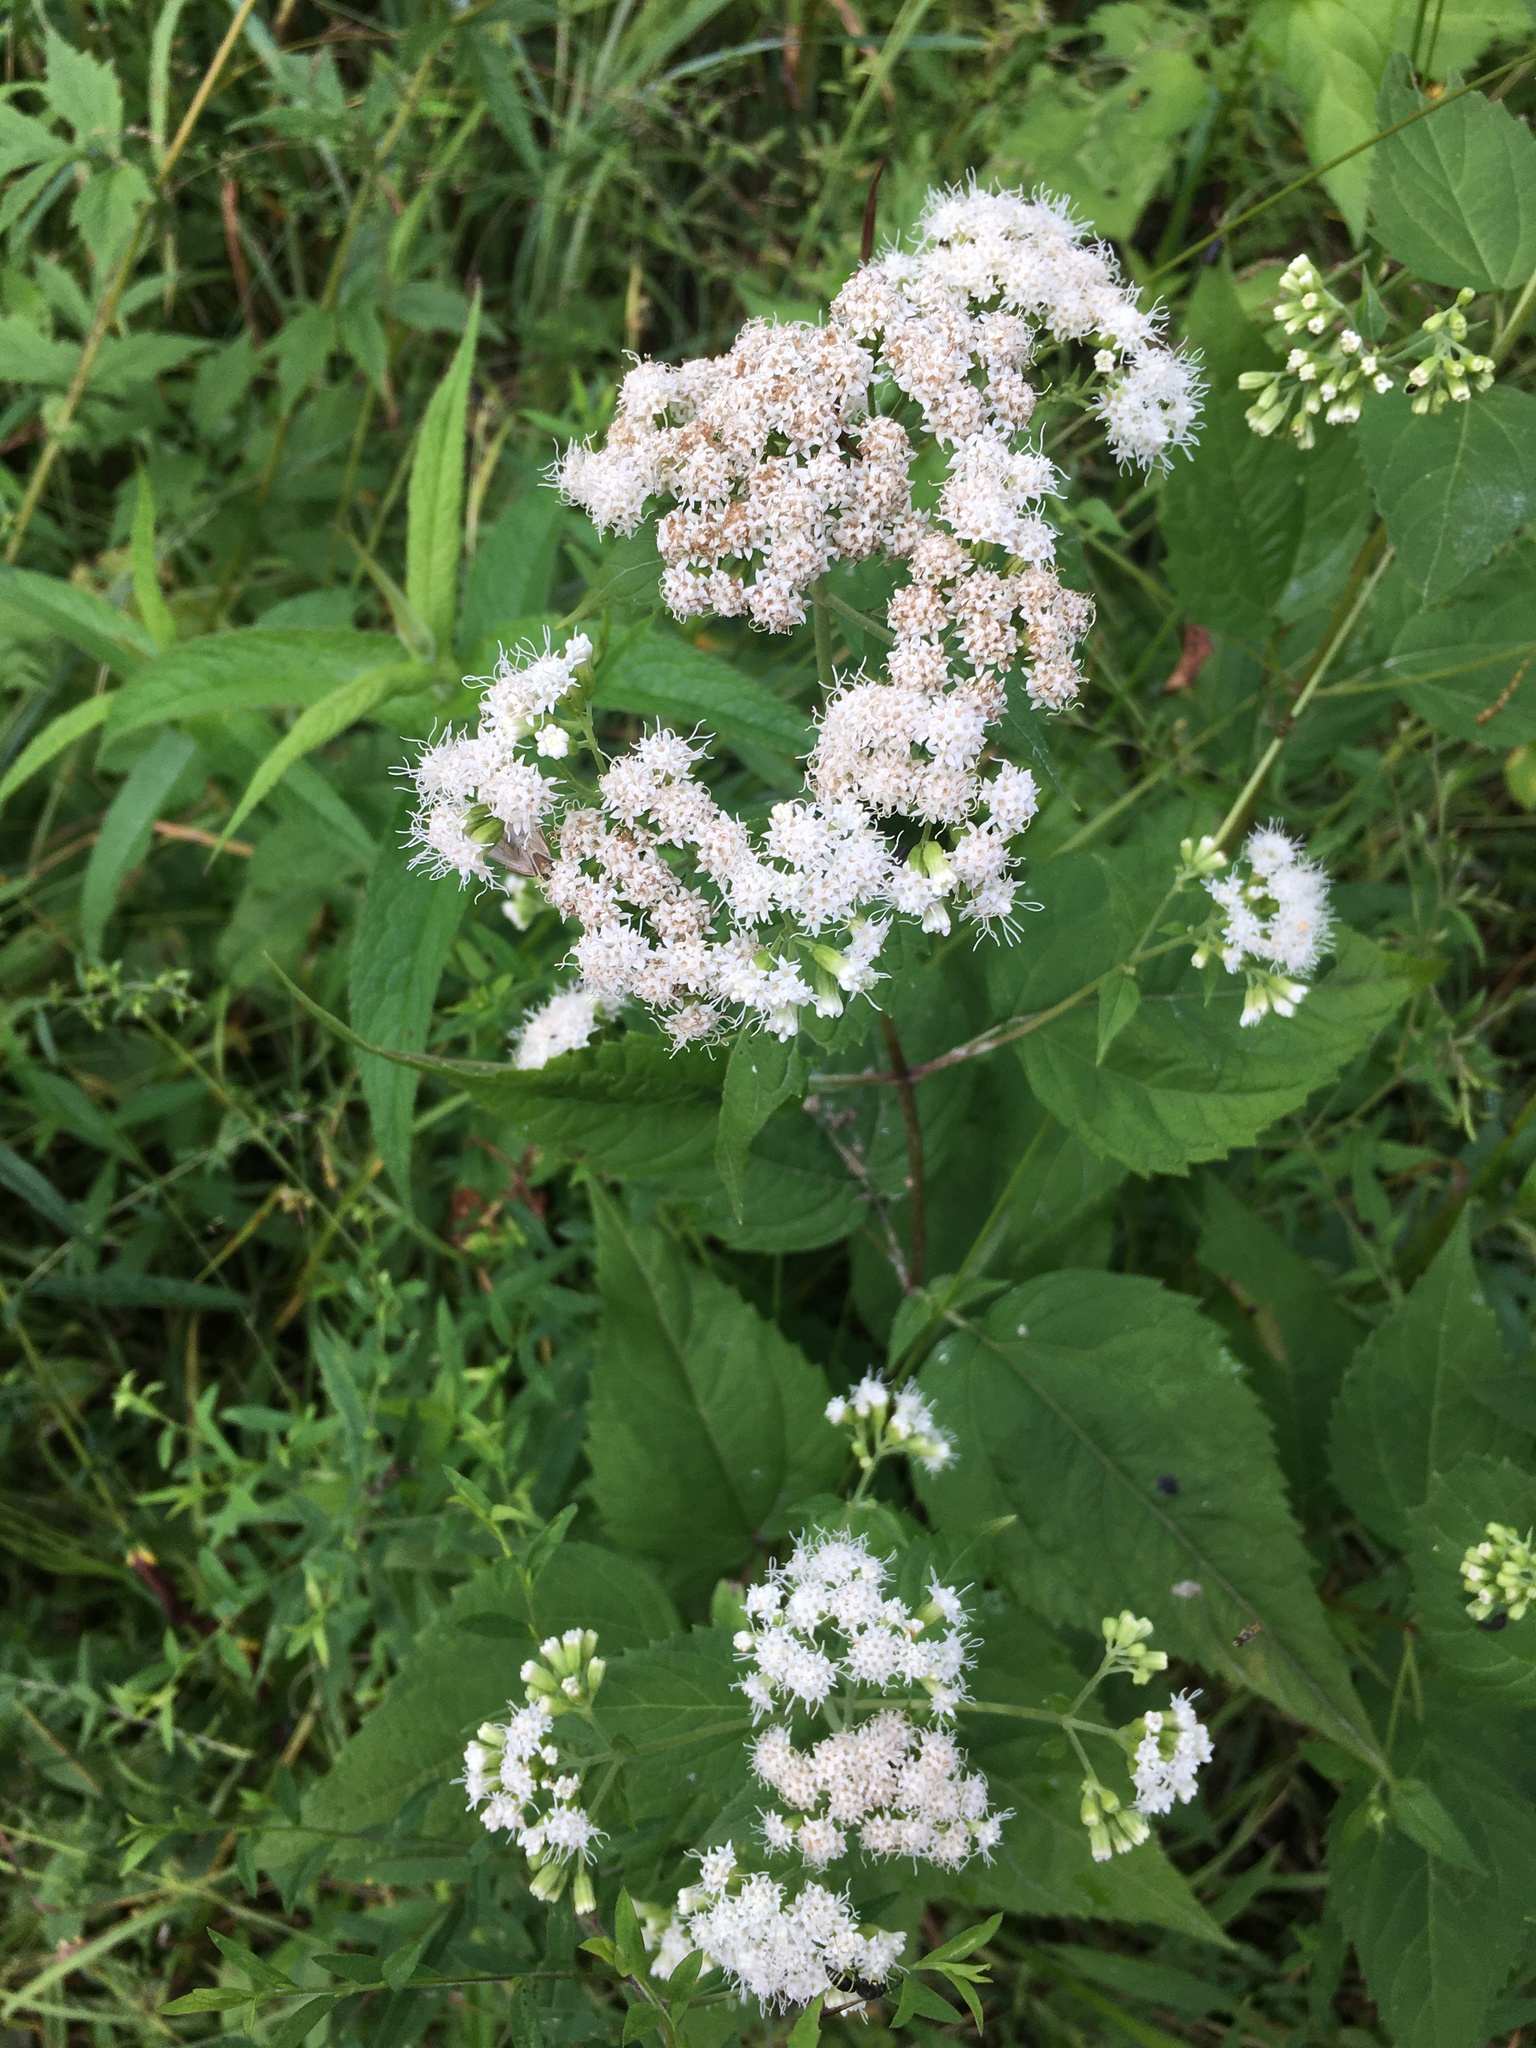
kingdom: Plantae
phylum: Tracheophyta
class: Magnoliopsida
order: Asterales
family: Asteraceae
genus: Ageratina
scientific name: Ageratina altissima
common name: White snakeroot
